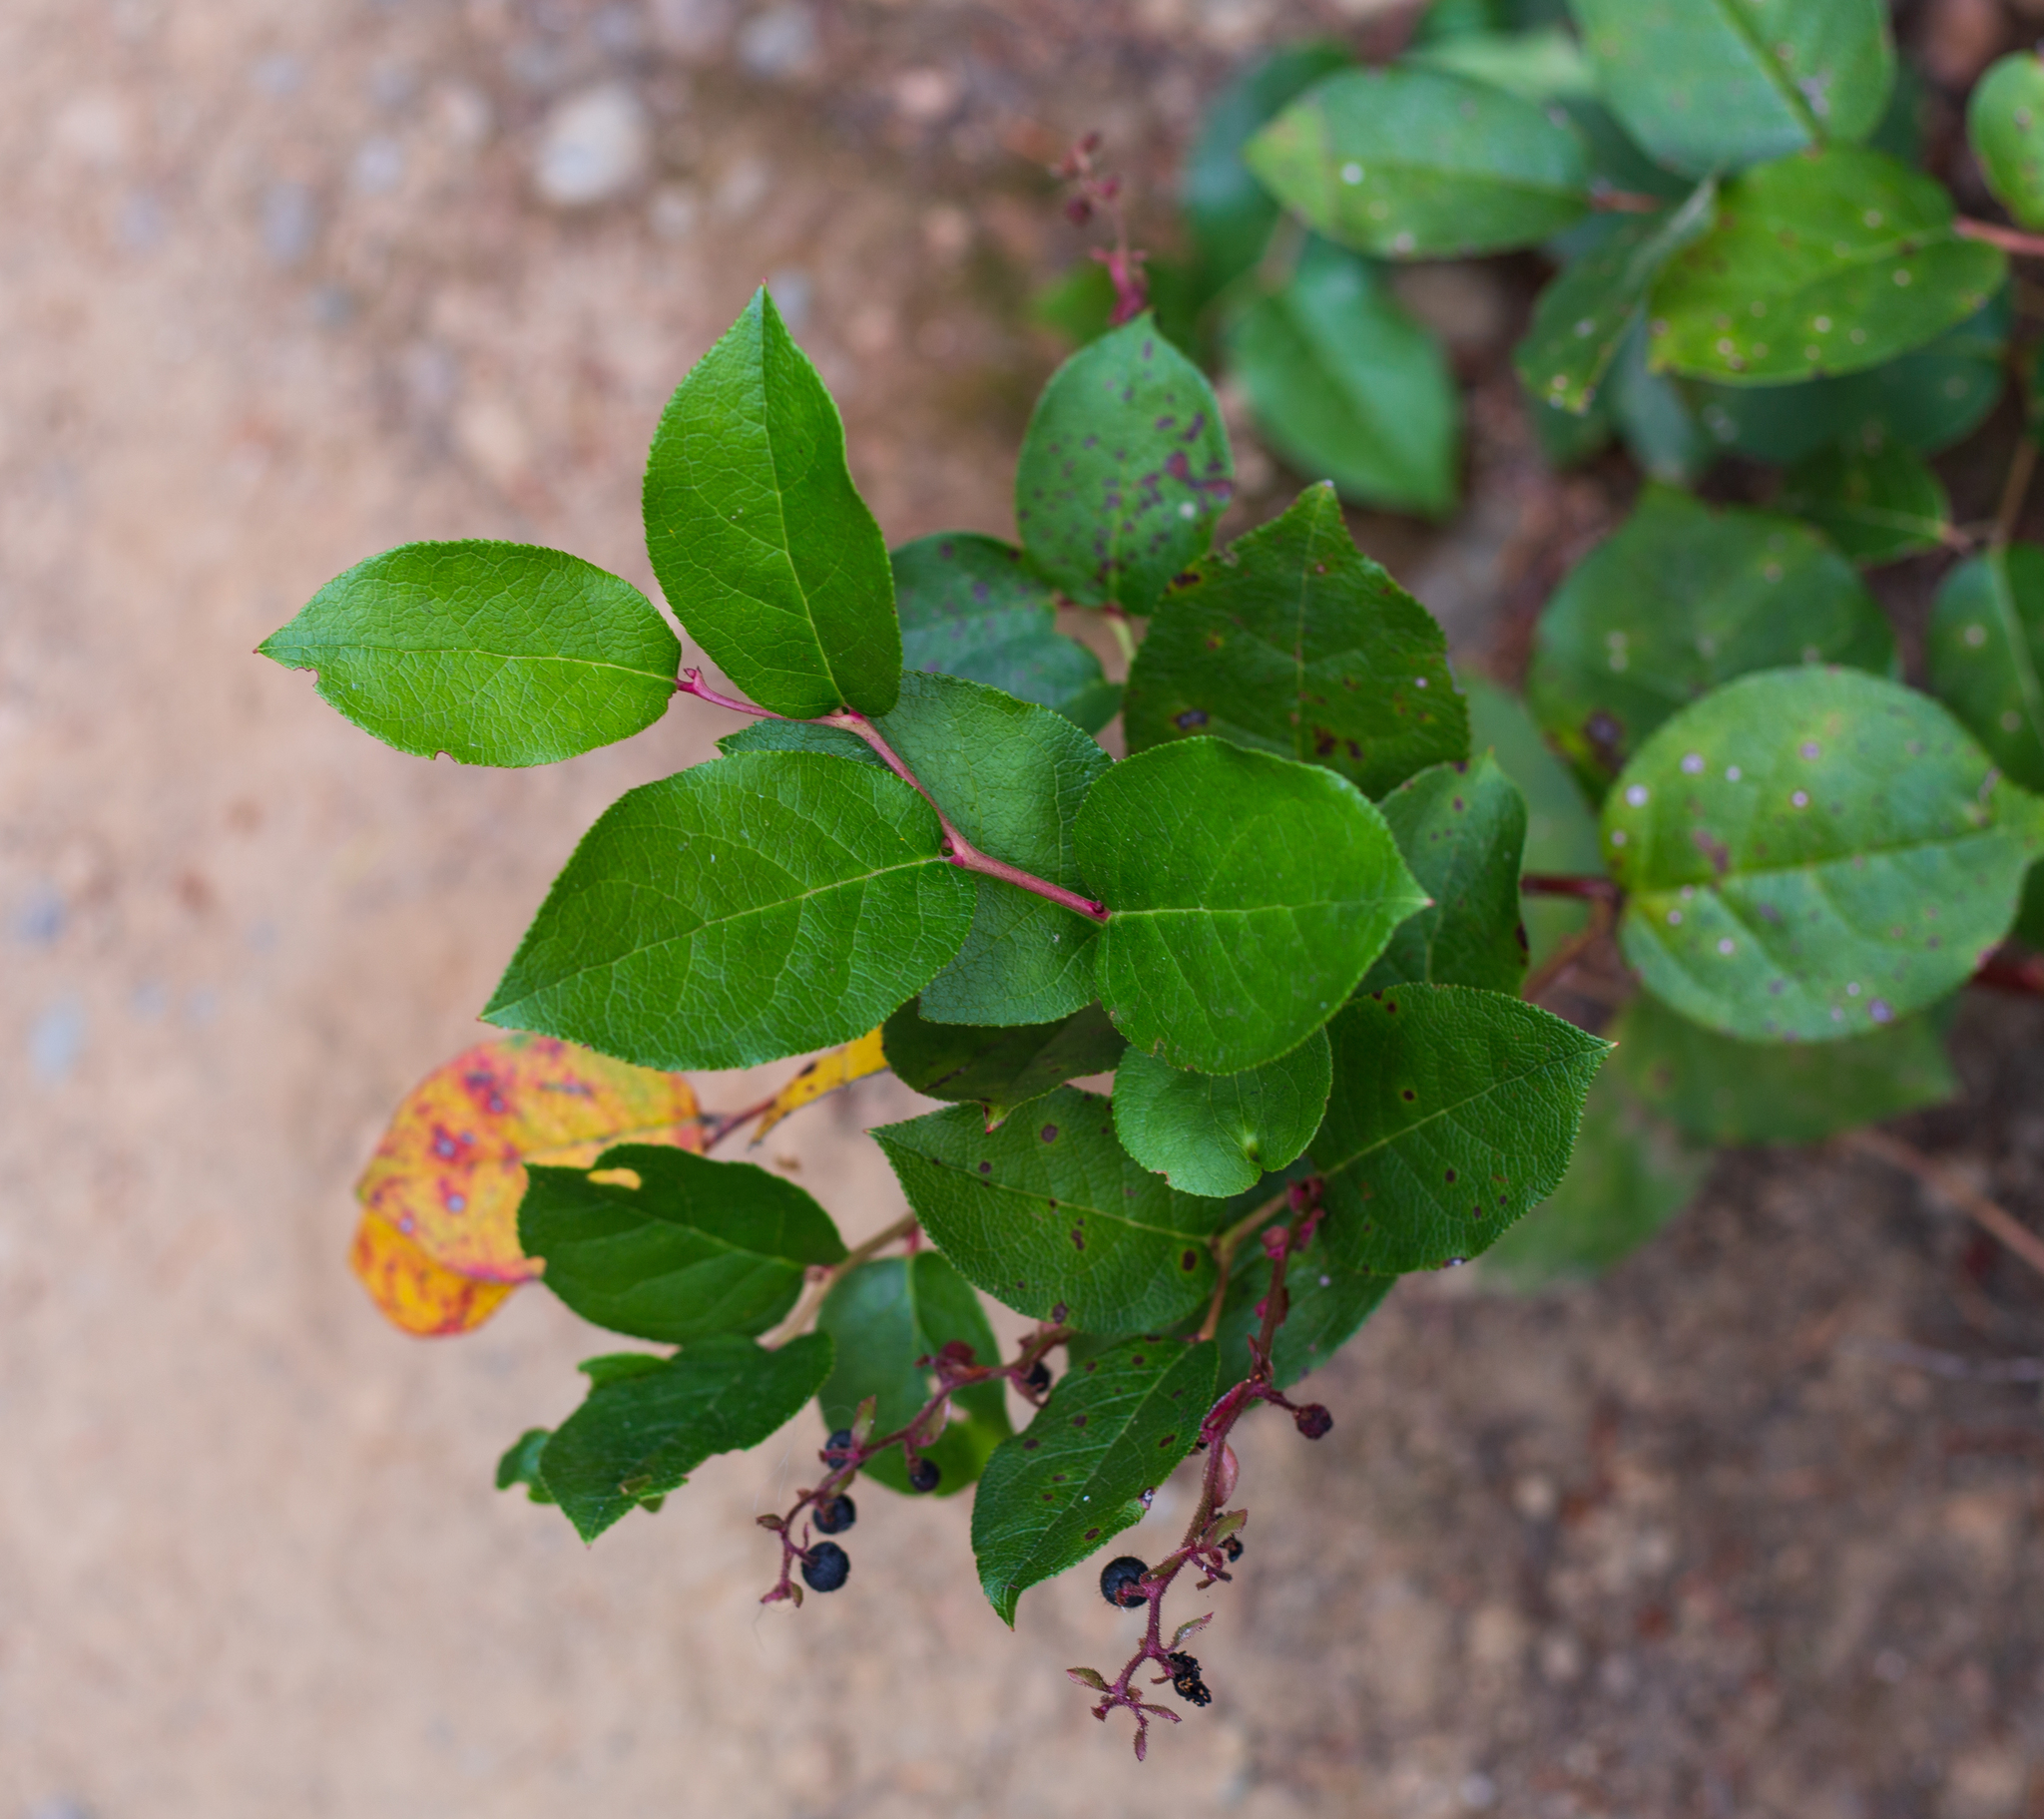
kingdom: Plantae
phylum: Tracheophyta
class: Magnoliopsida
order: Ericales
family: Ericaceae
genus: Gaultheria
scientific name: Gaultheria shallon
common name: Shallon
